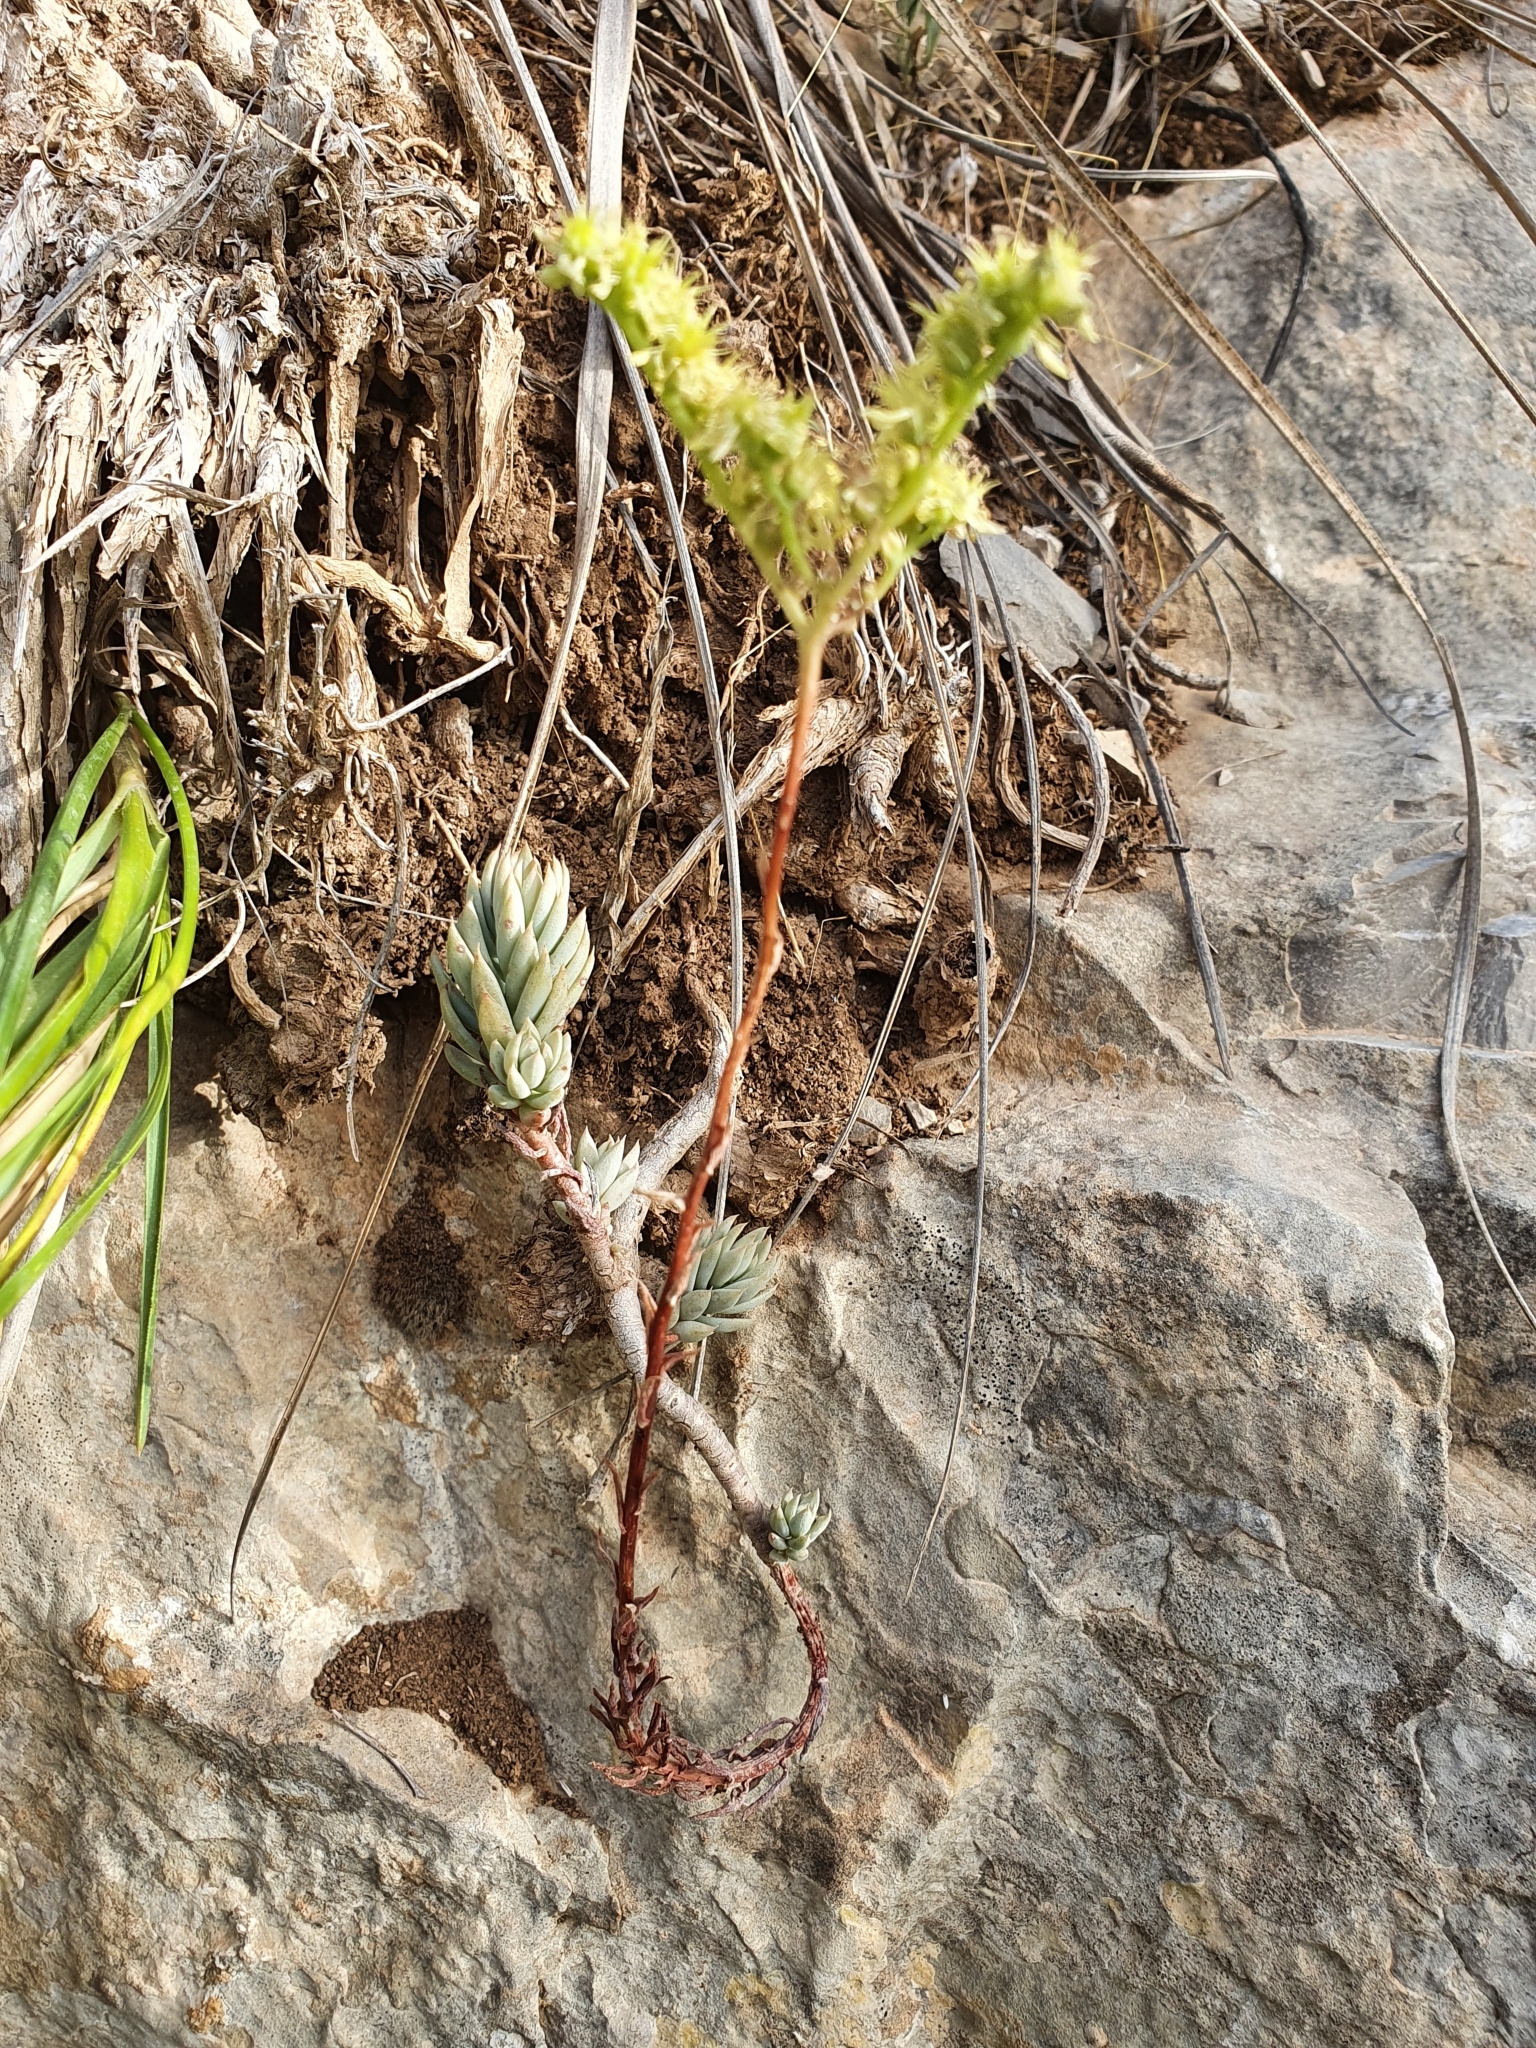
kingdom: Plantae
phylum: Tracheophyta
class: Magnoliopsida
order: Saxifragales
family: Crassulaceae
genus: Petrosedum
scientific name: Petrosedum sediforme
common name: Pale stonecrop
